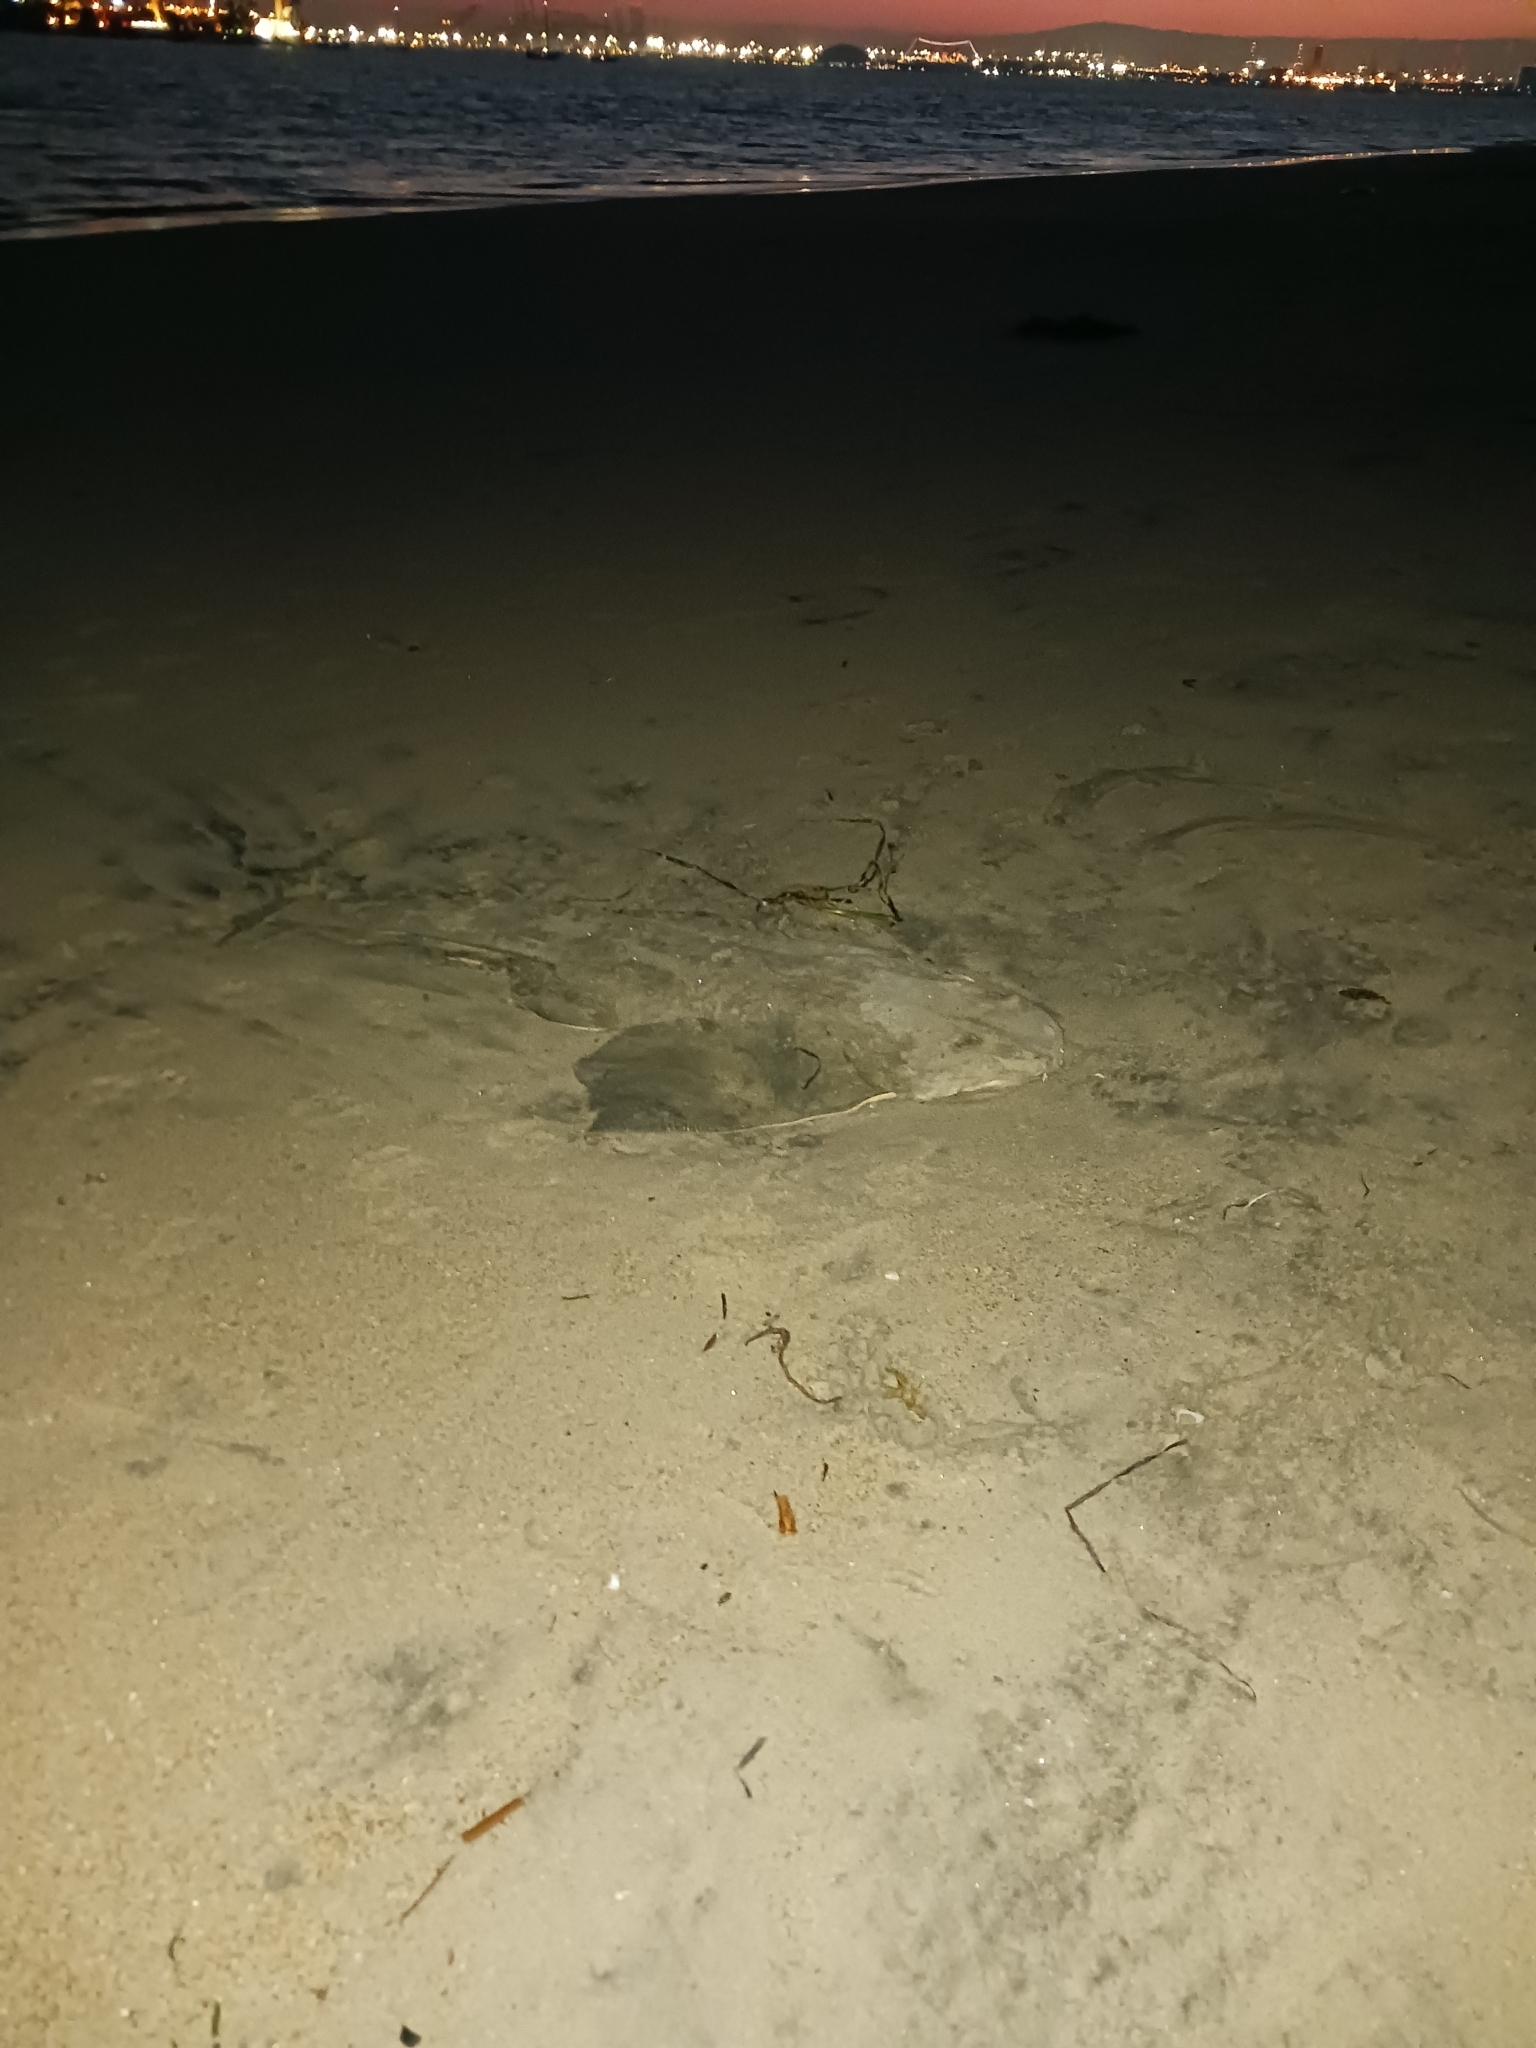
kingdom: Animalia
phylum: Chordata
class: Elasmobranchii
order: Squatiniformes
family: Squatinidae
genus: Squatina
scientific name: Squatina californica
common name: Pacific angel shark
